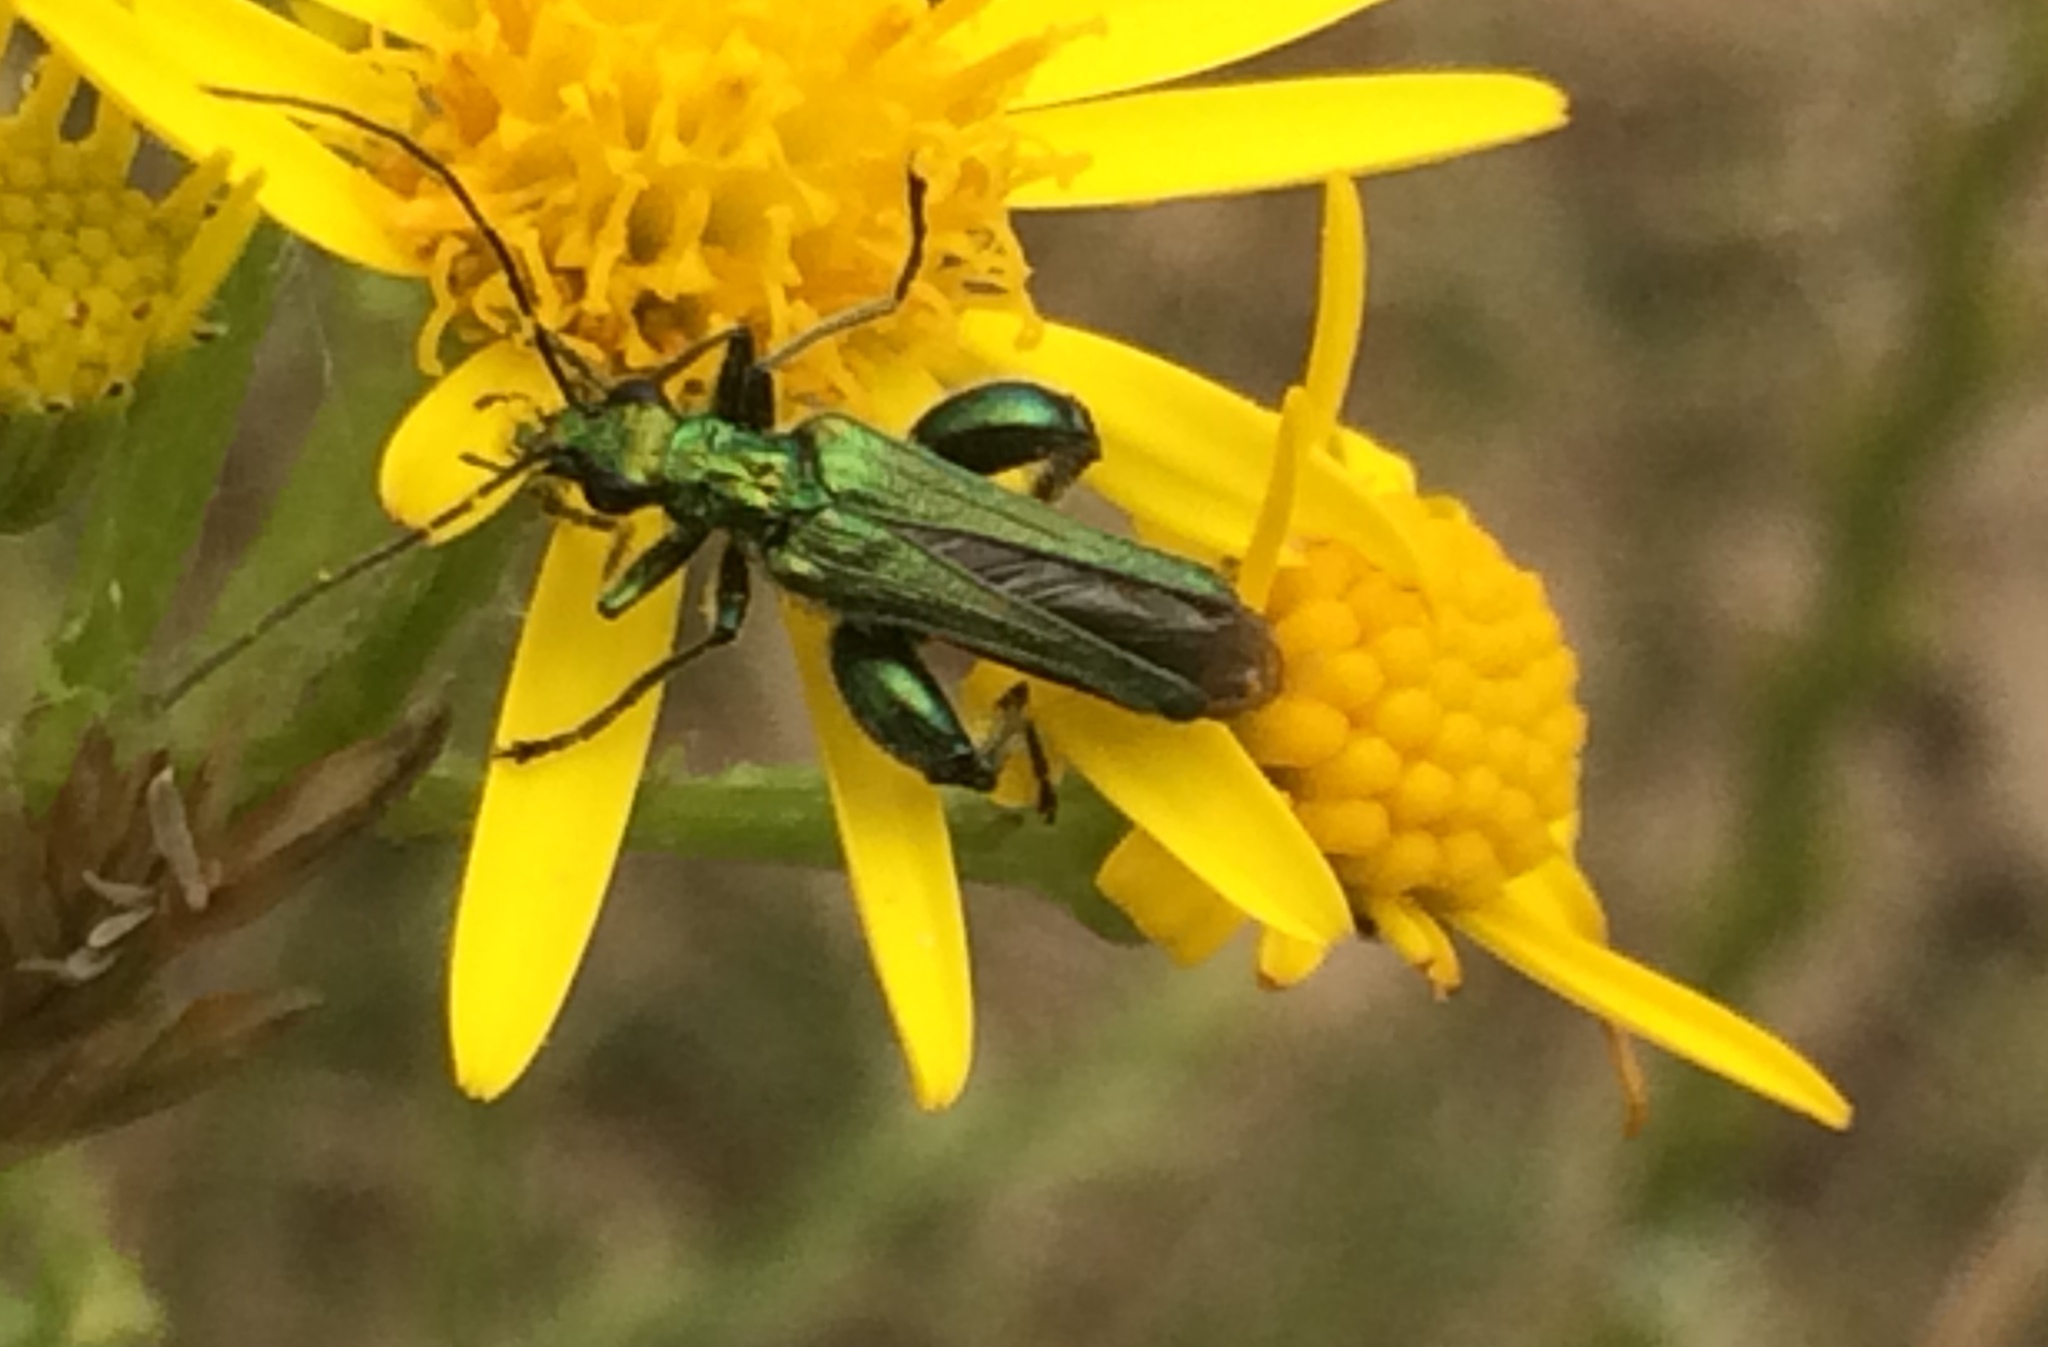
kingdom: Animalia
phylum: Arthropoda
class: Insecta
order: Coleoptera
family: Oedemeridae
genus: Oedemera
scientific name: Oedemera nobilis
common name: Swollen-thighed beetle
